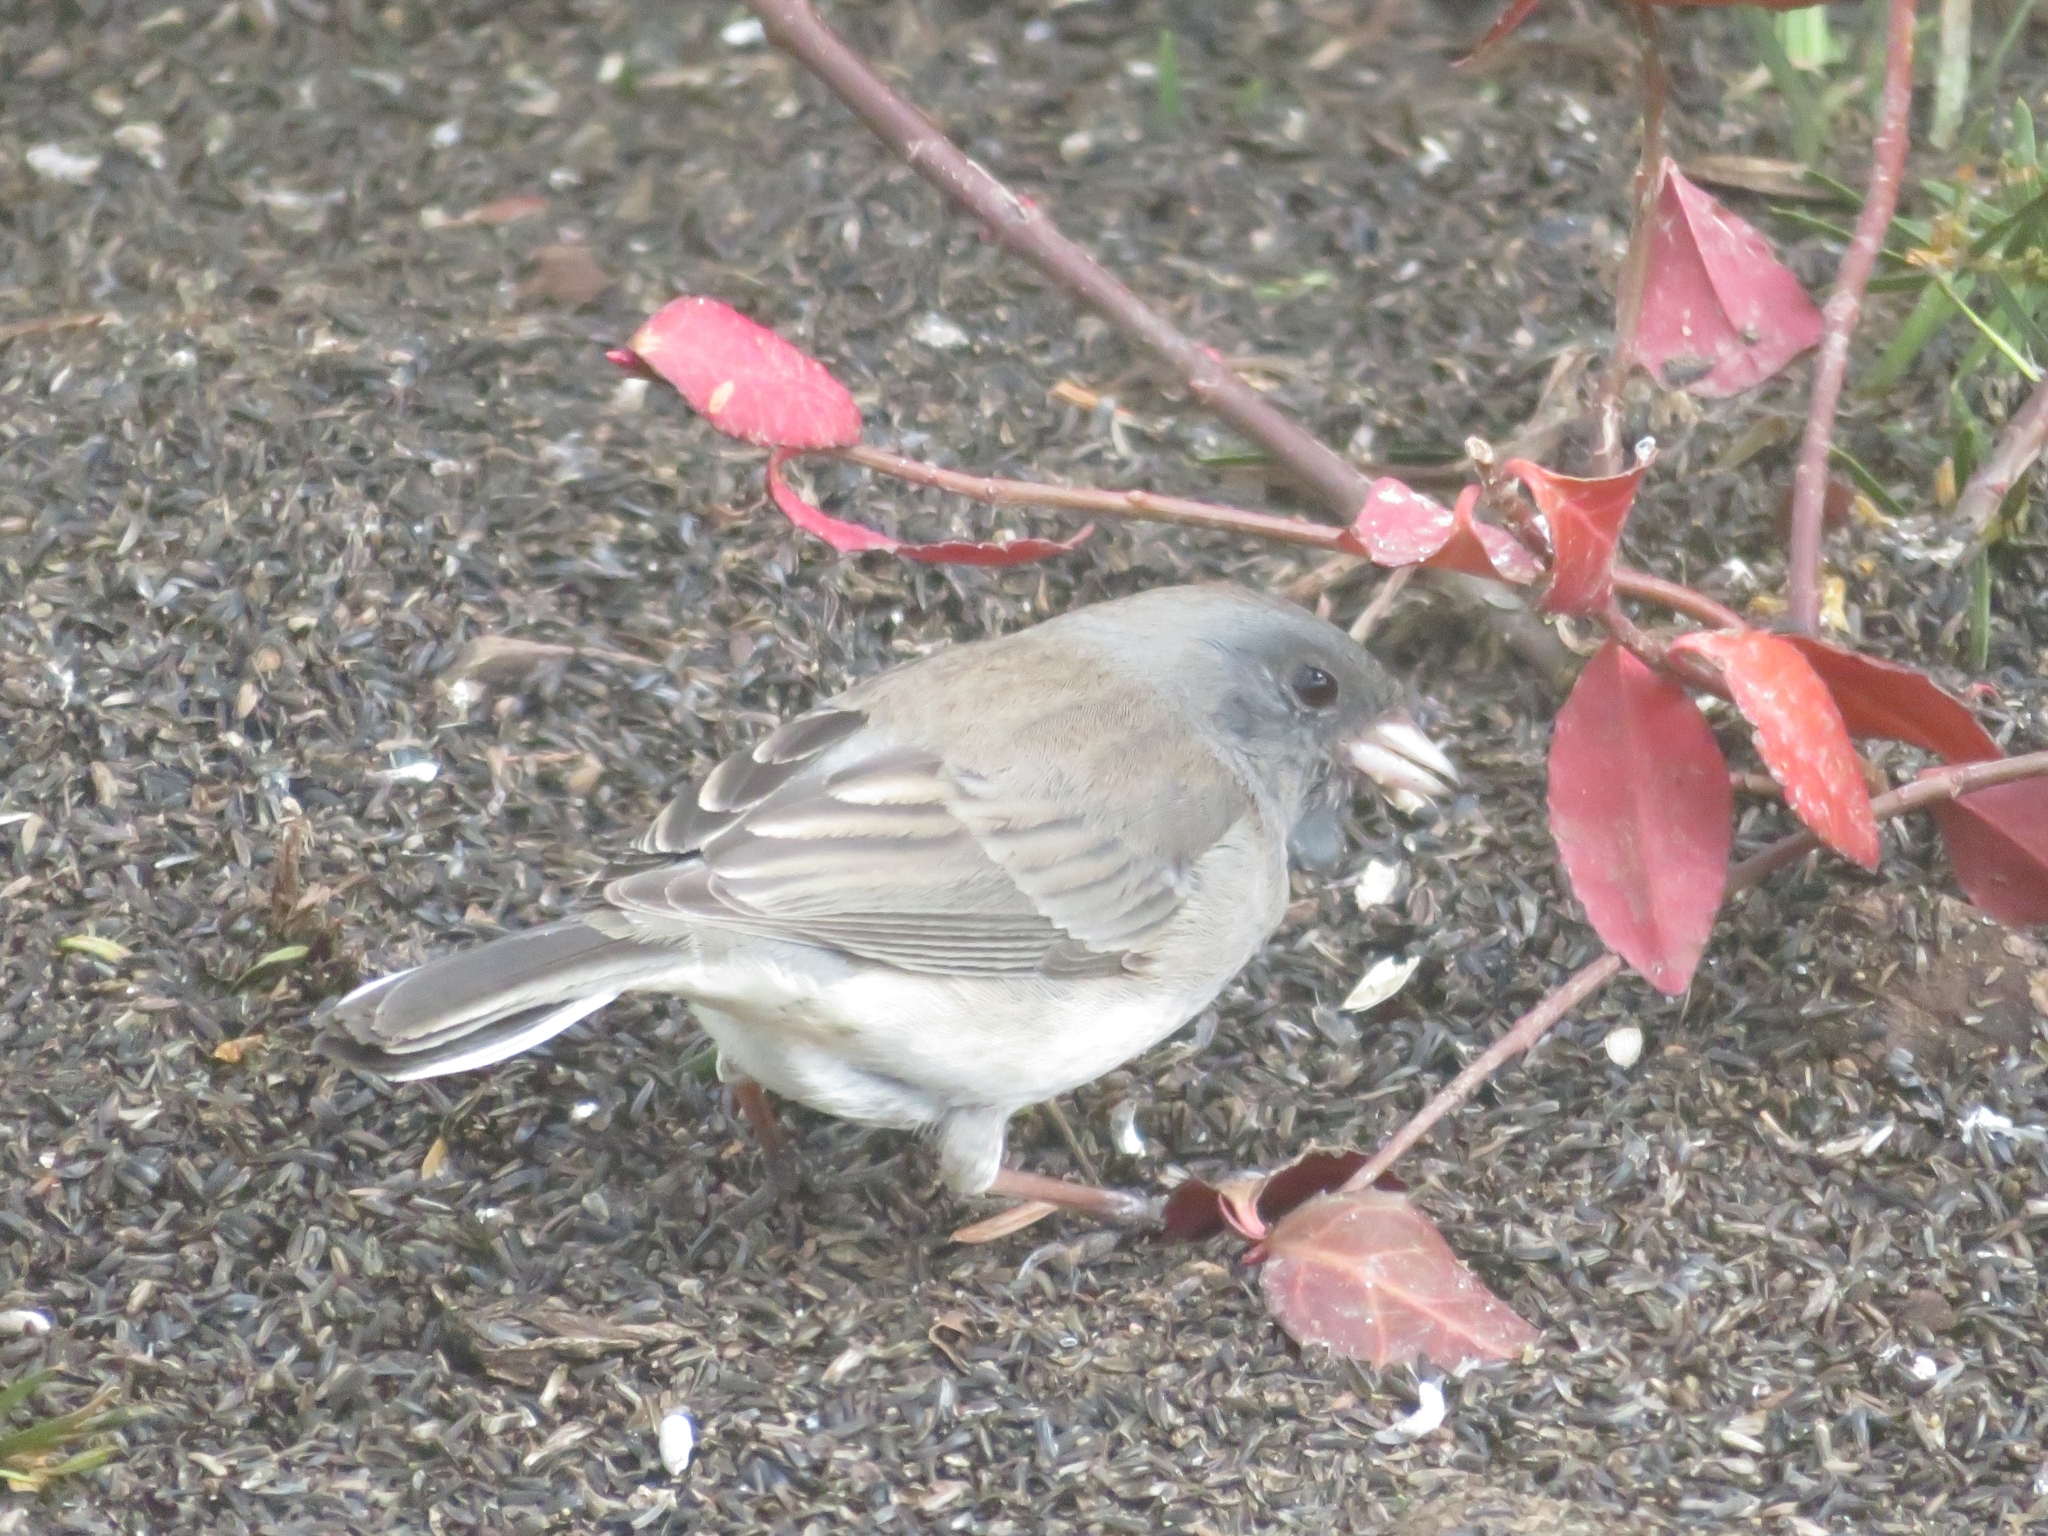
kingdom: Animalia
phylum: Chordata
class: Aves
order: Passeriformes
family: Passerellidae
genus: Junco
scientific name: Junco hyemalis
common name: Dark-eyed junco
